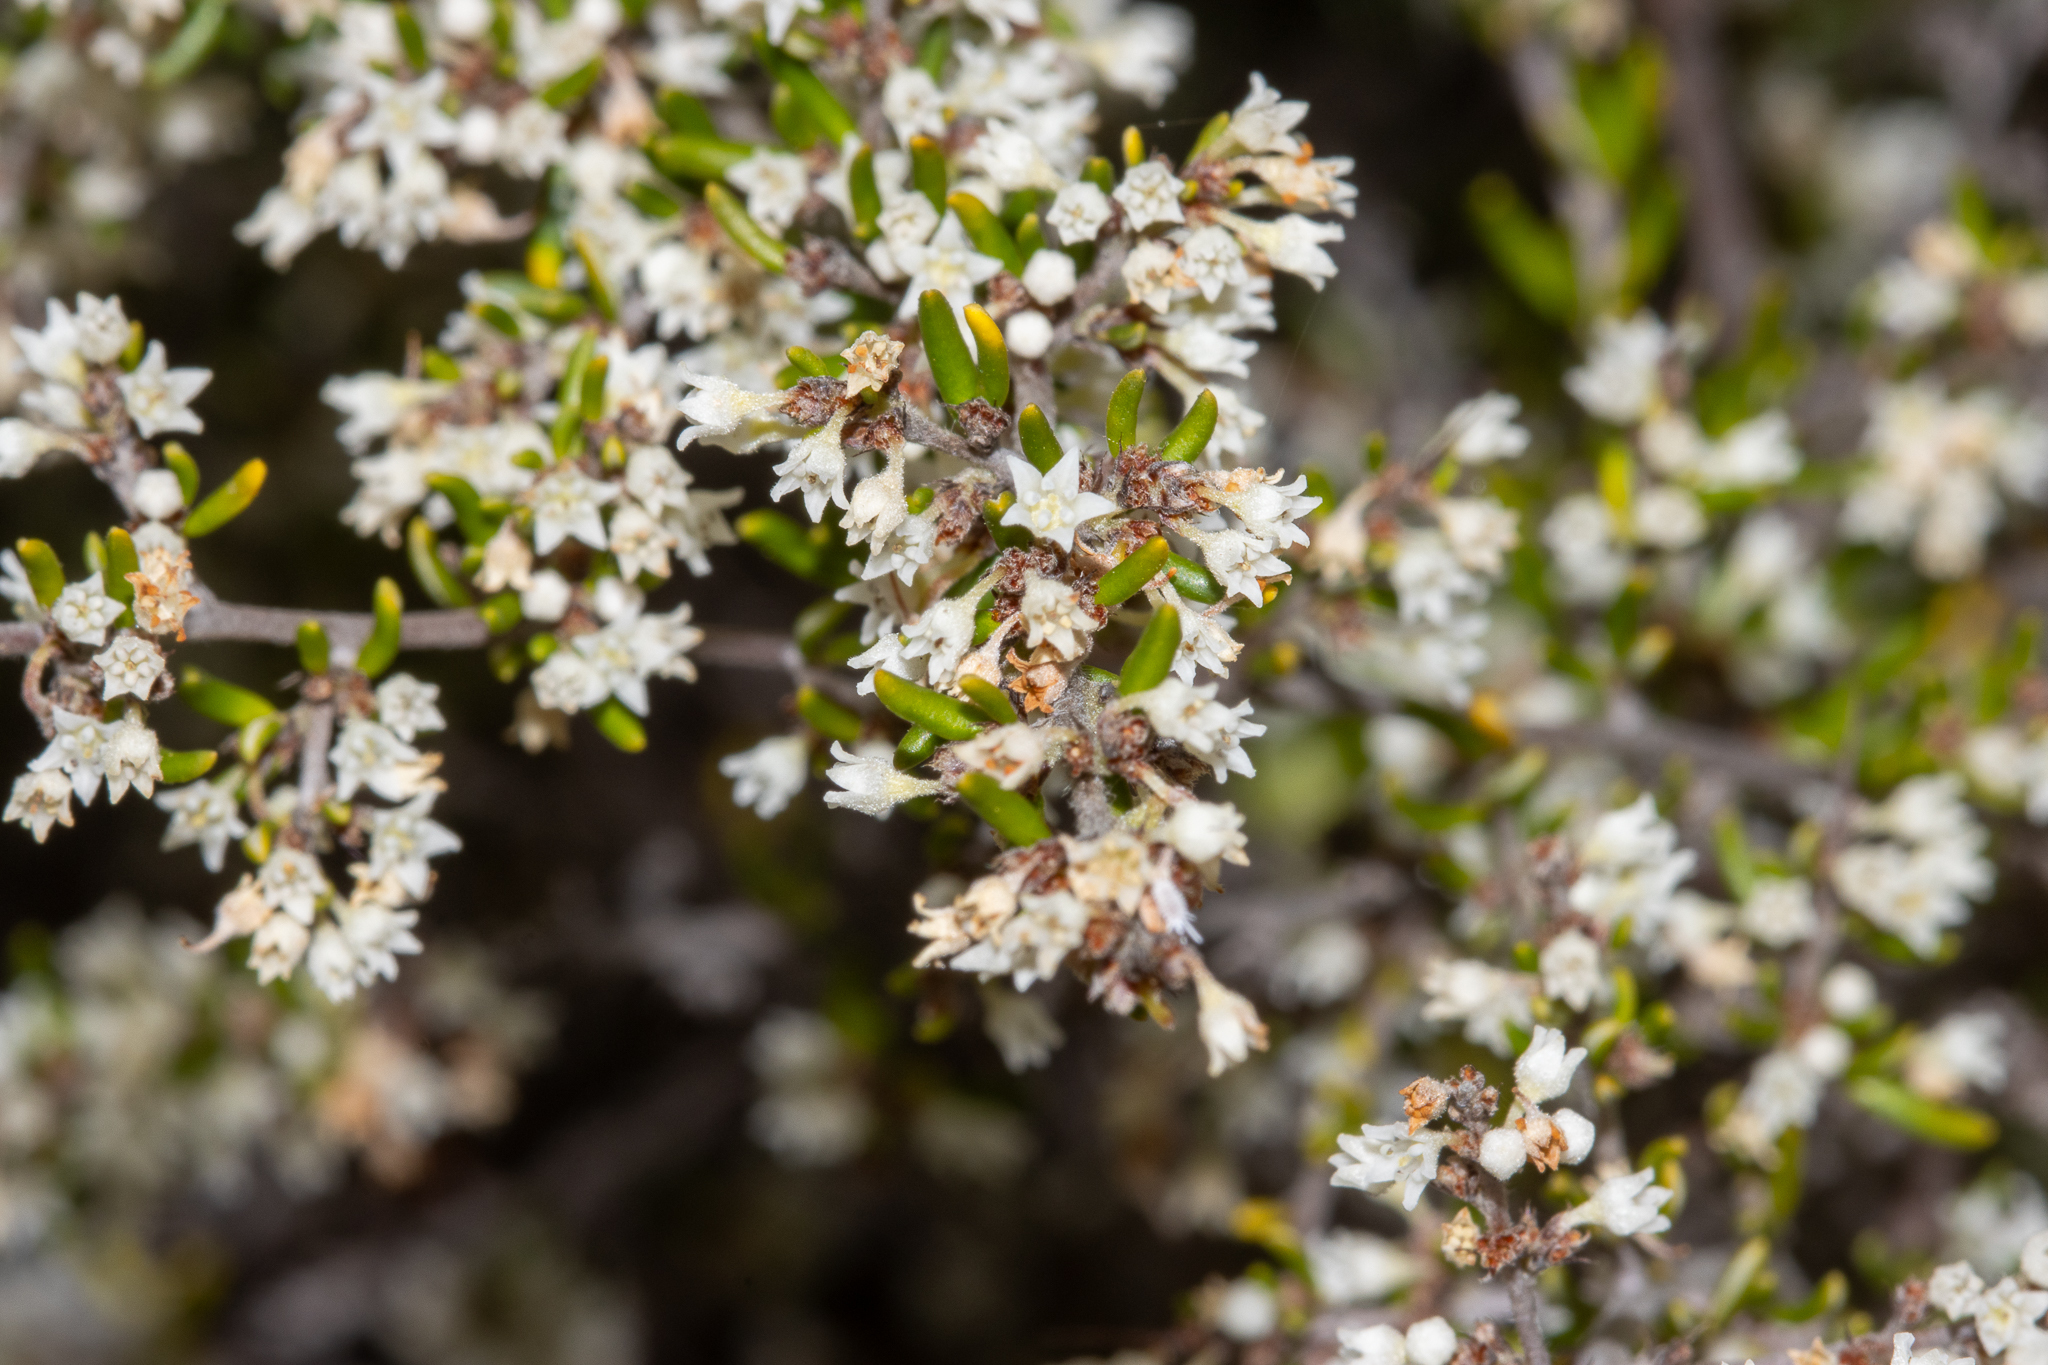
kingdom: Plantae
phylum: Tracheophyta
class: Magnoliopsida
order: Rosales
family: Rhamnaceae
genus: Cryptandra
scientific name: Cryptandra pungens
